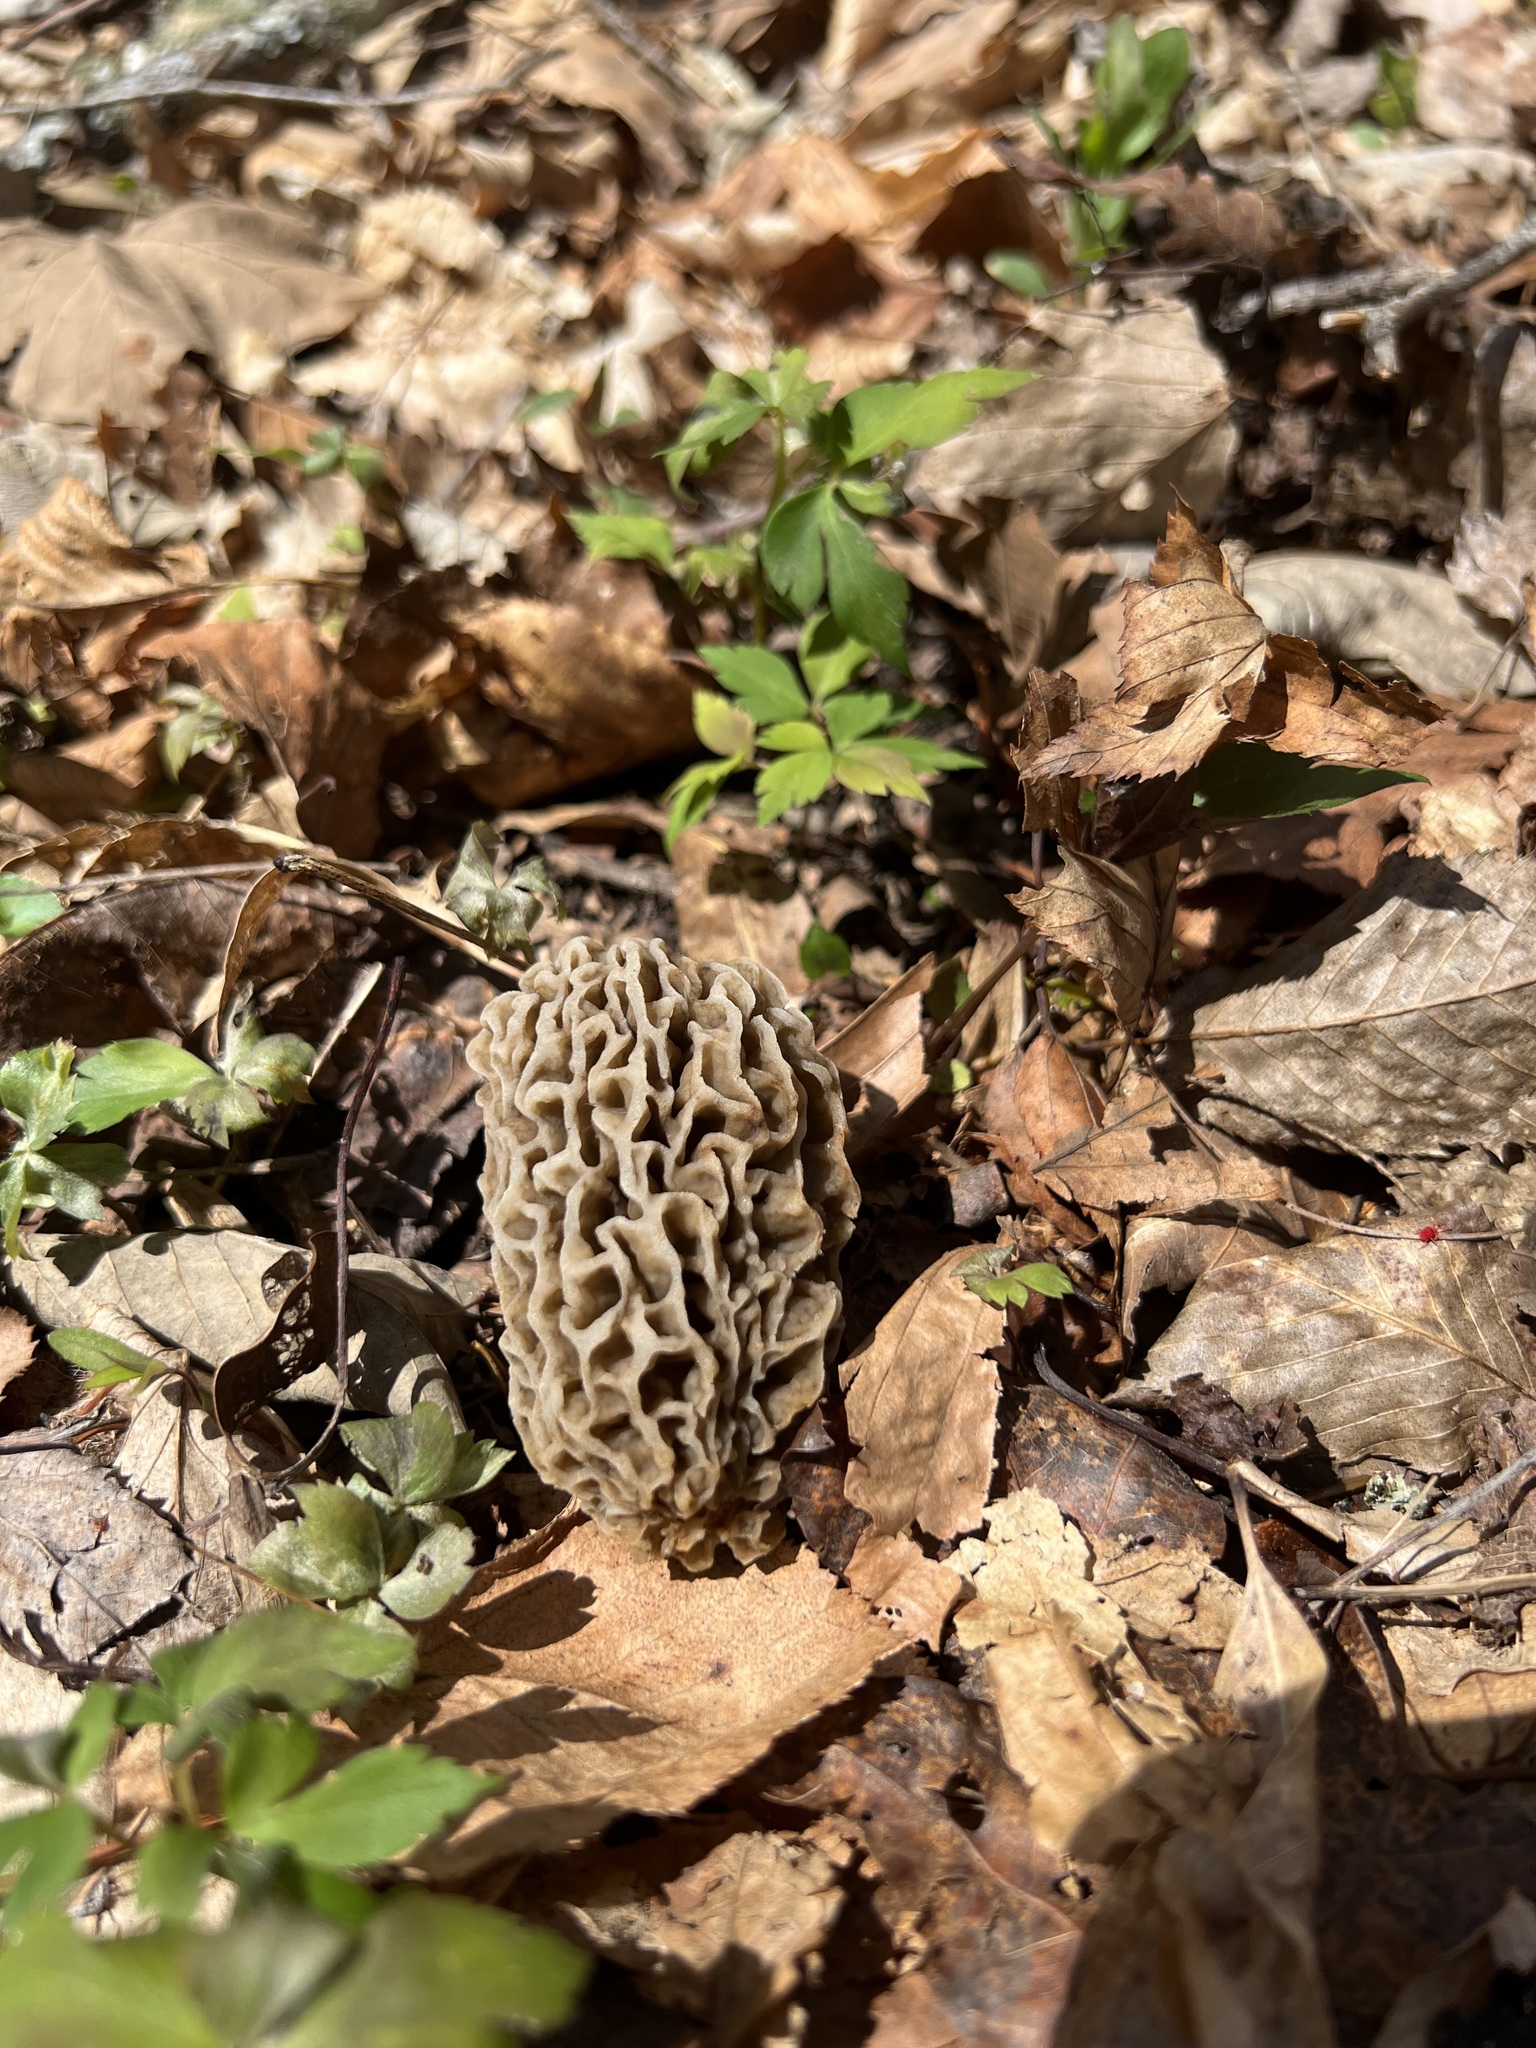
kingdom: Fungi
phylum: Ascomycota
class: Pezizomycetes
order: Pezizales
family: Morchellaceae
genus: Morchella
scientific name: Morchella americana
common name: White morel
